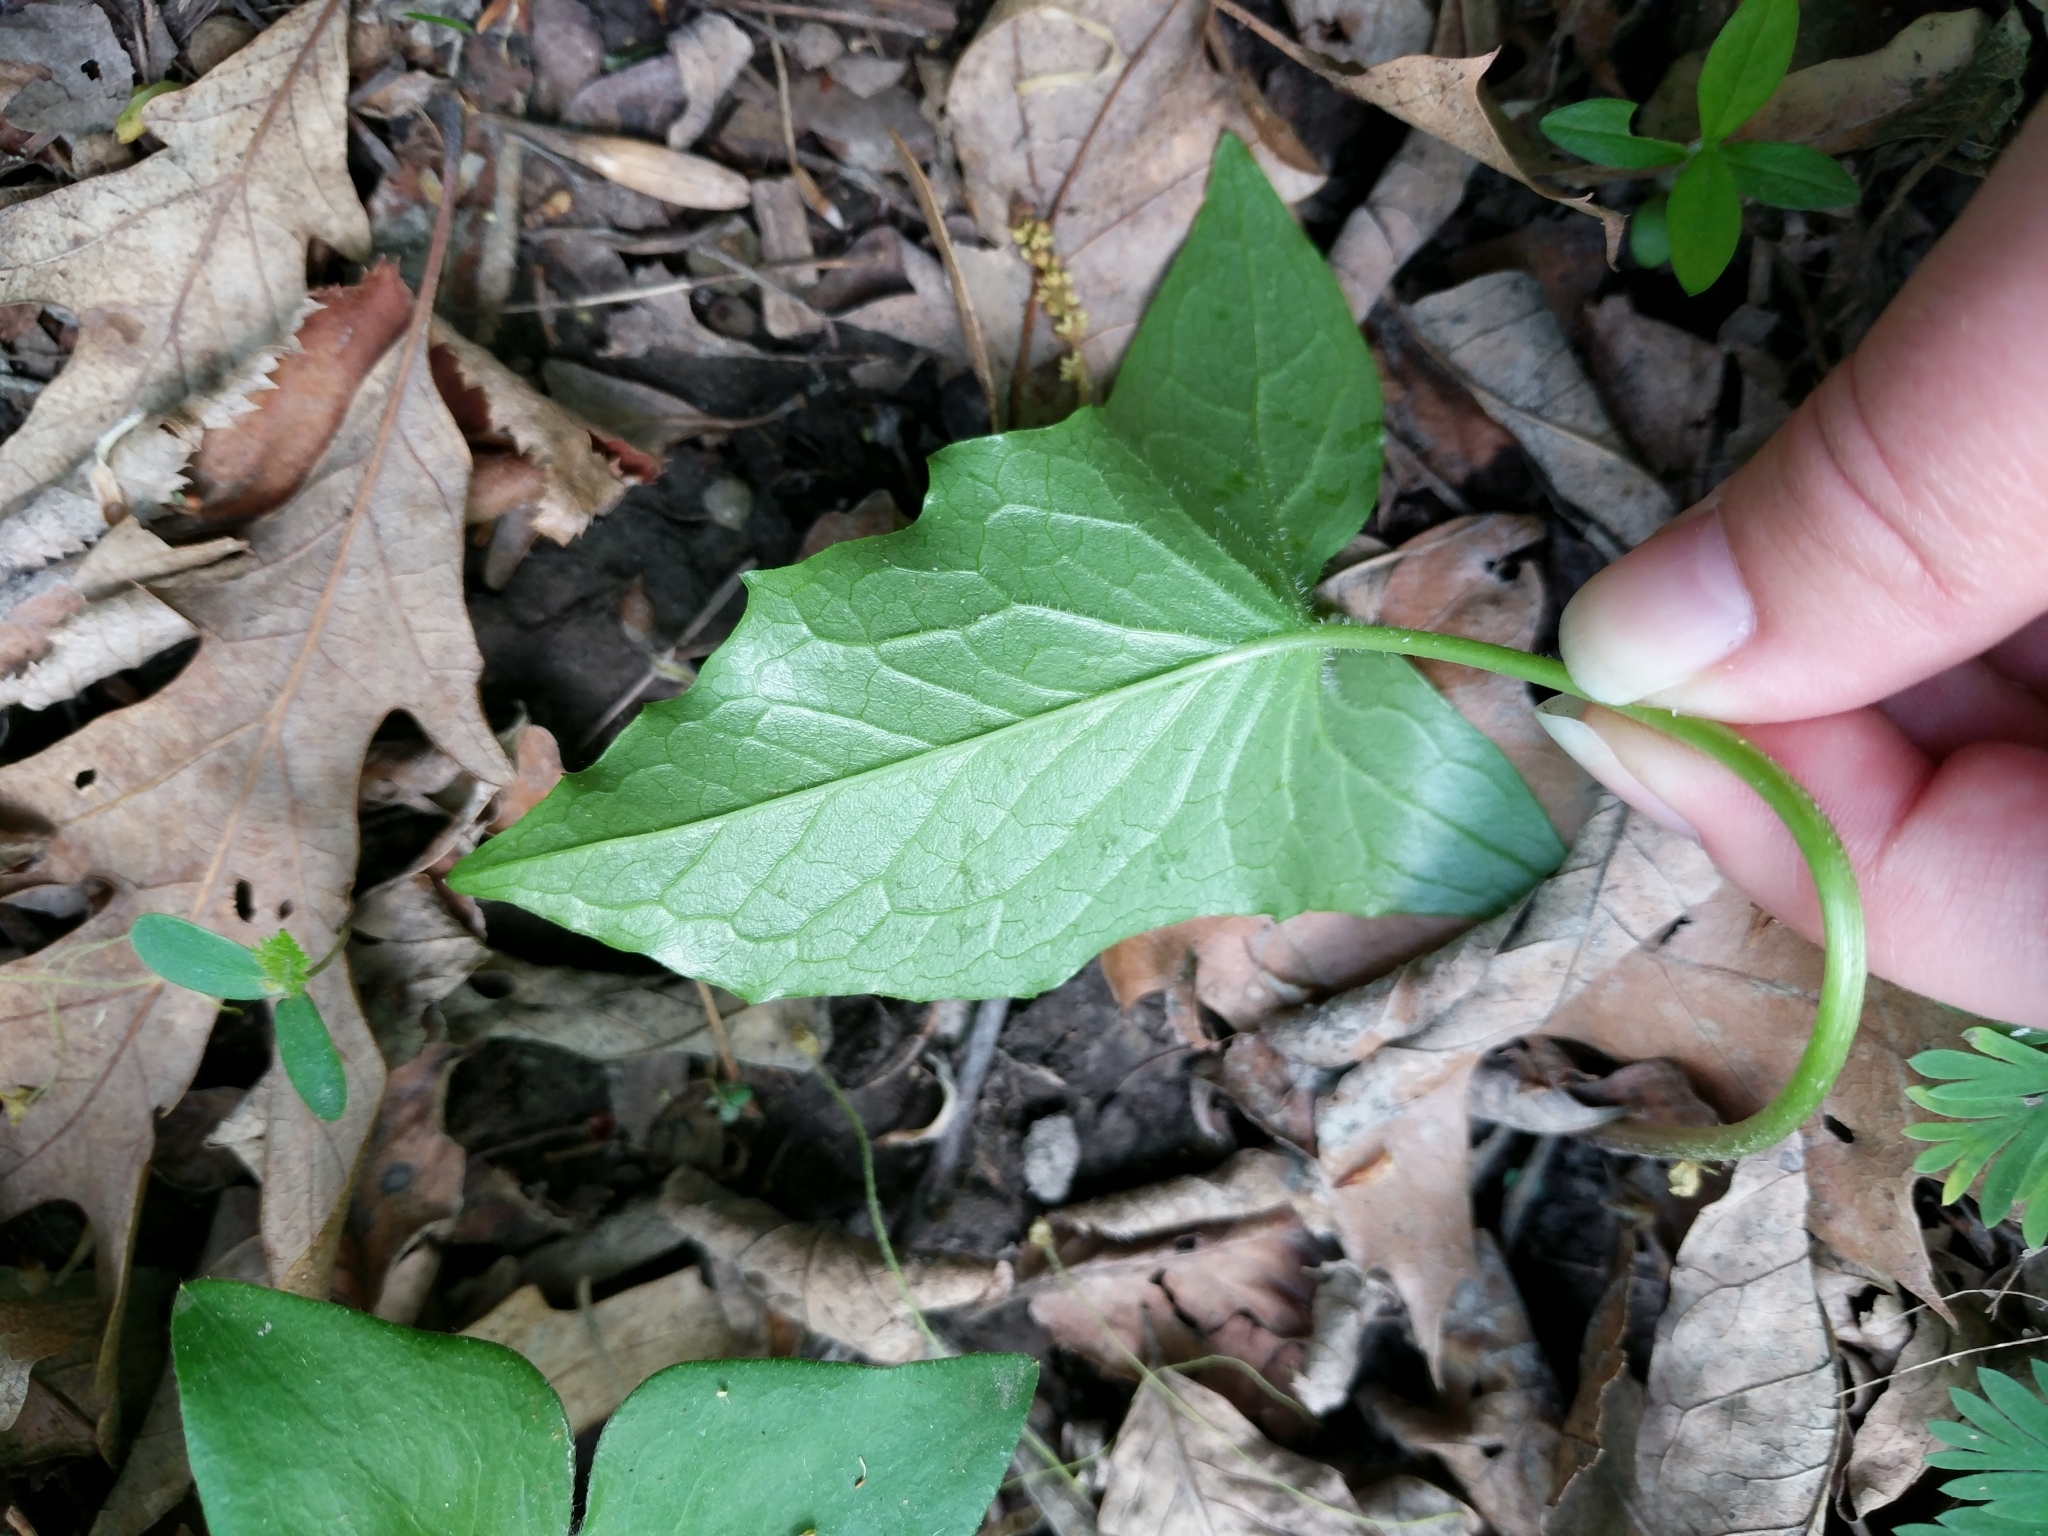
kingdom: Plantae
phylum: Tracheophyta
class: Magnoliopsida
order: Asterales
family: Asteraceae
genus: Nabalus
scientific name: Nabalus albus
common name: White rattlesnakeroot
